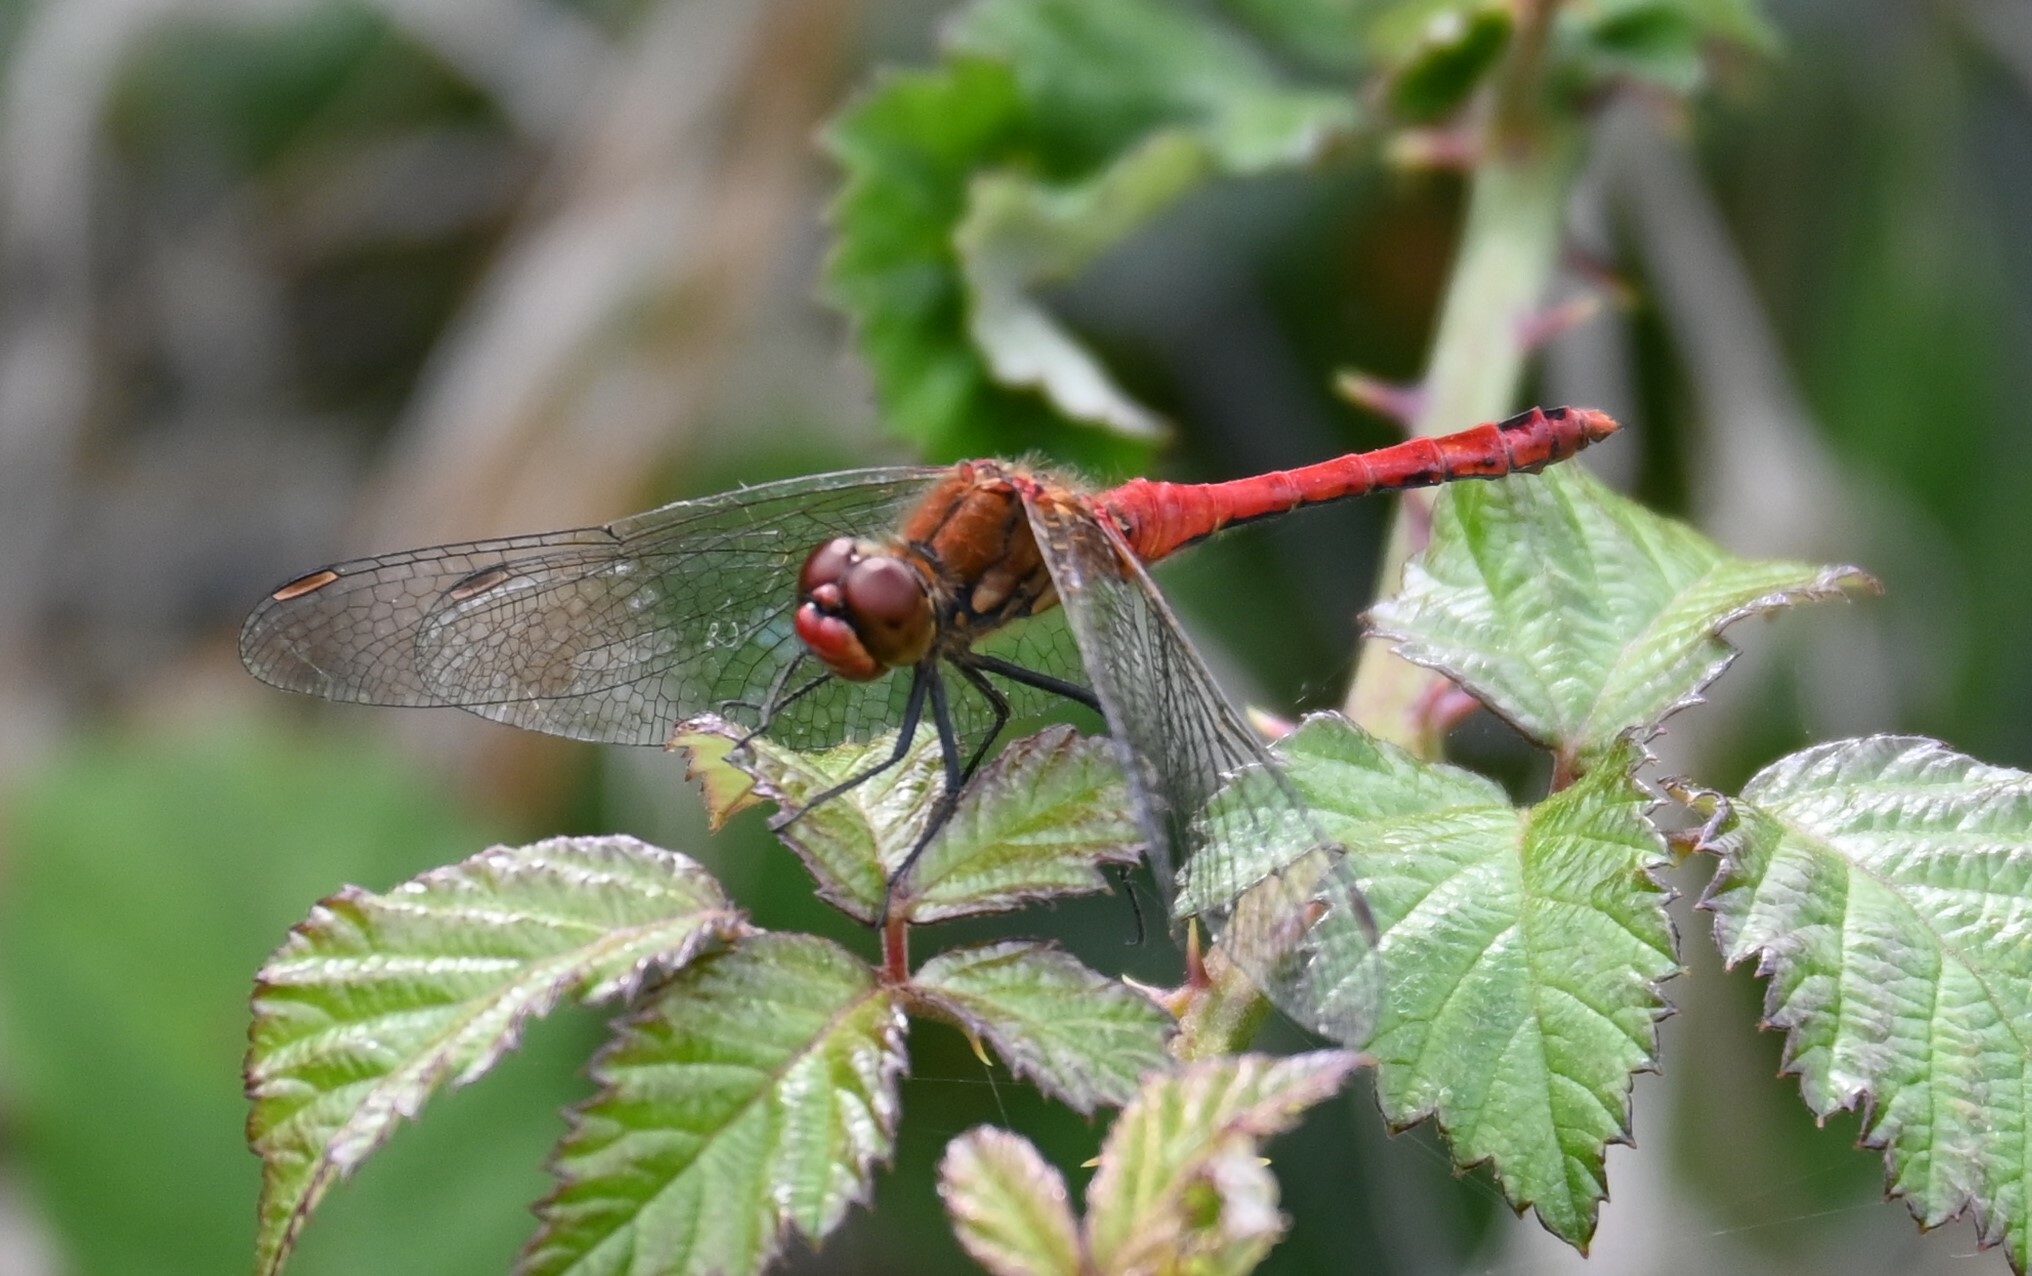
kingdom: Animalia
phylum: Arthropoda
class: Insecta
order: Odonata
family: Libellulidae
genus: Sympetrum
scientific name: Sympetrum sanguineum
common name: Ruddy darter
